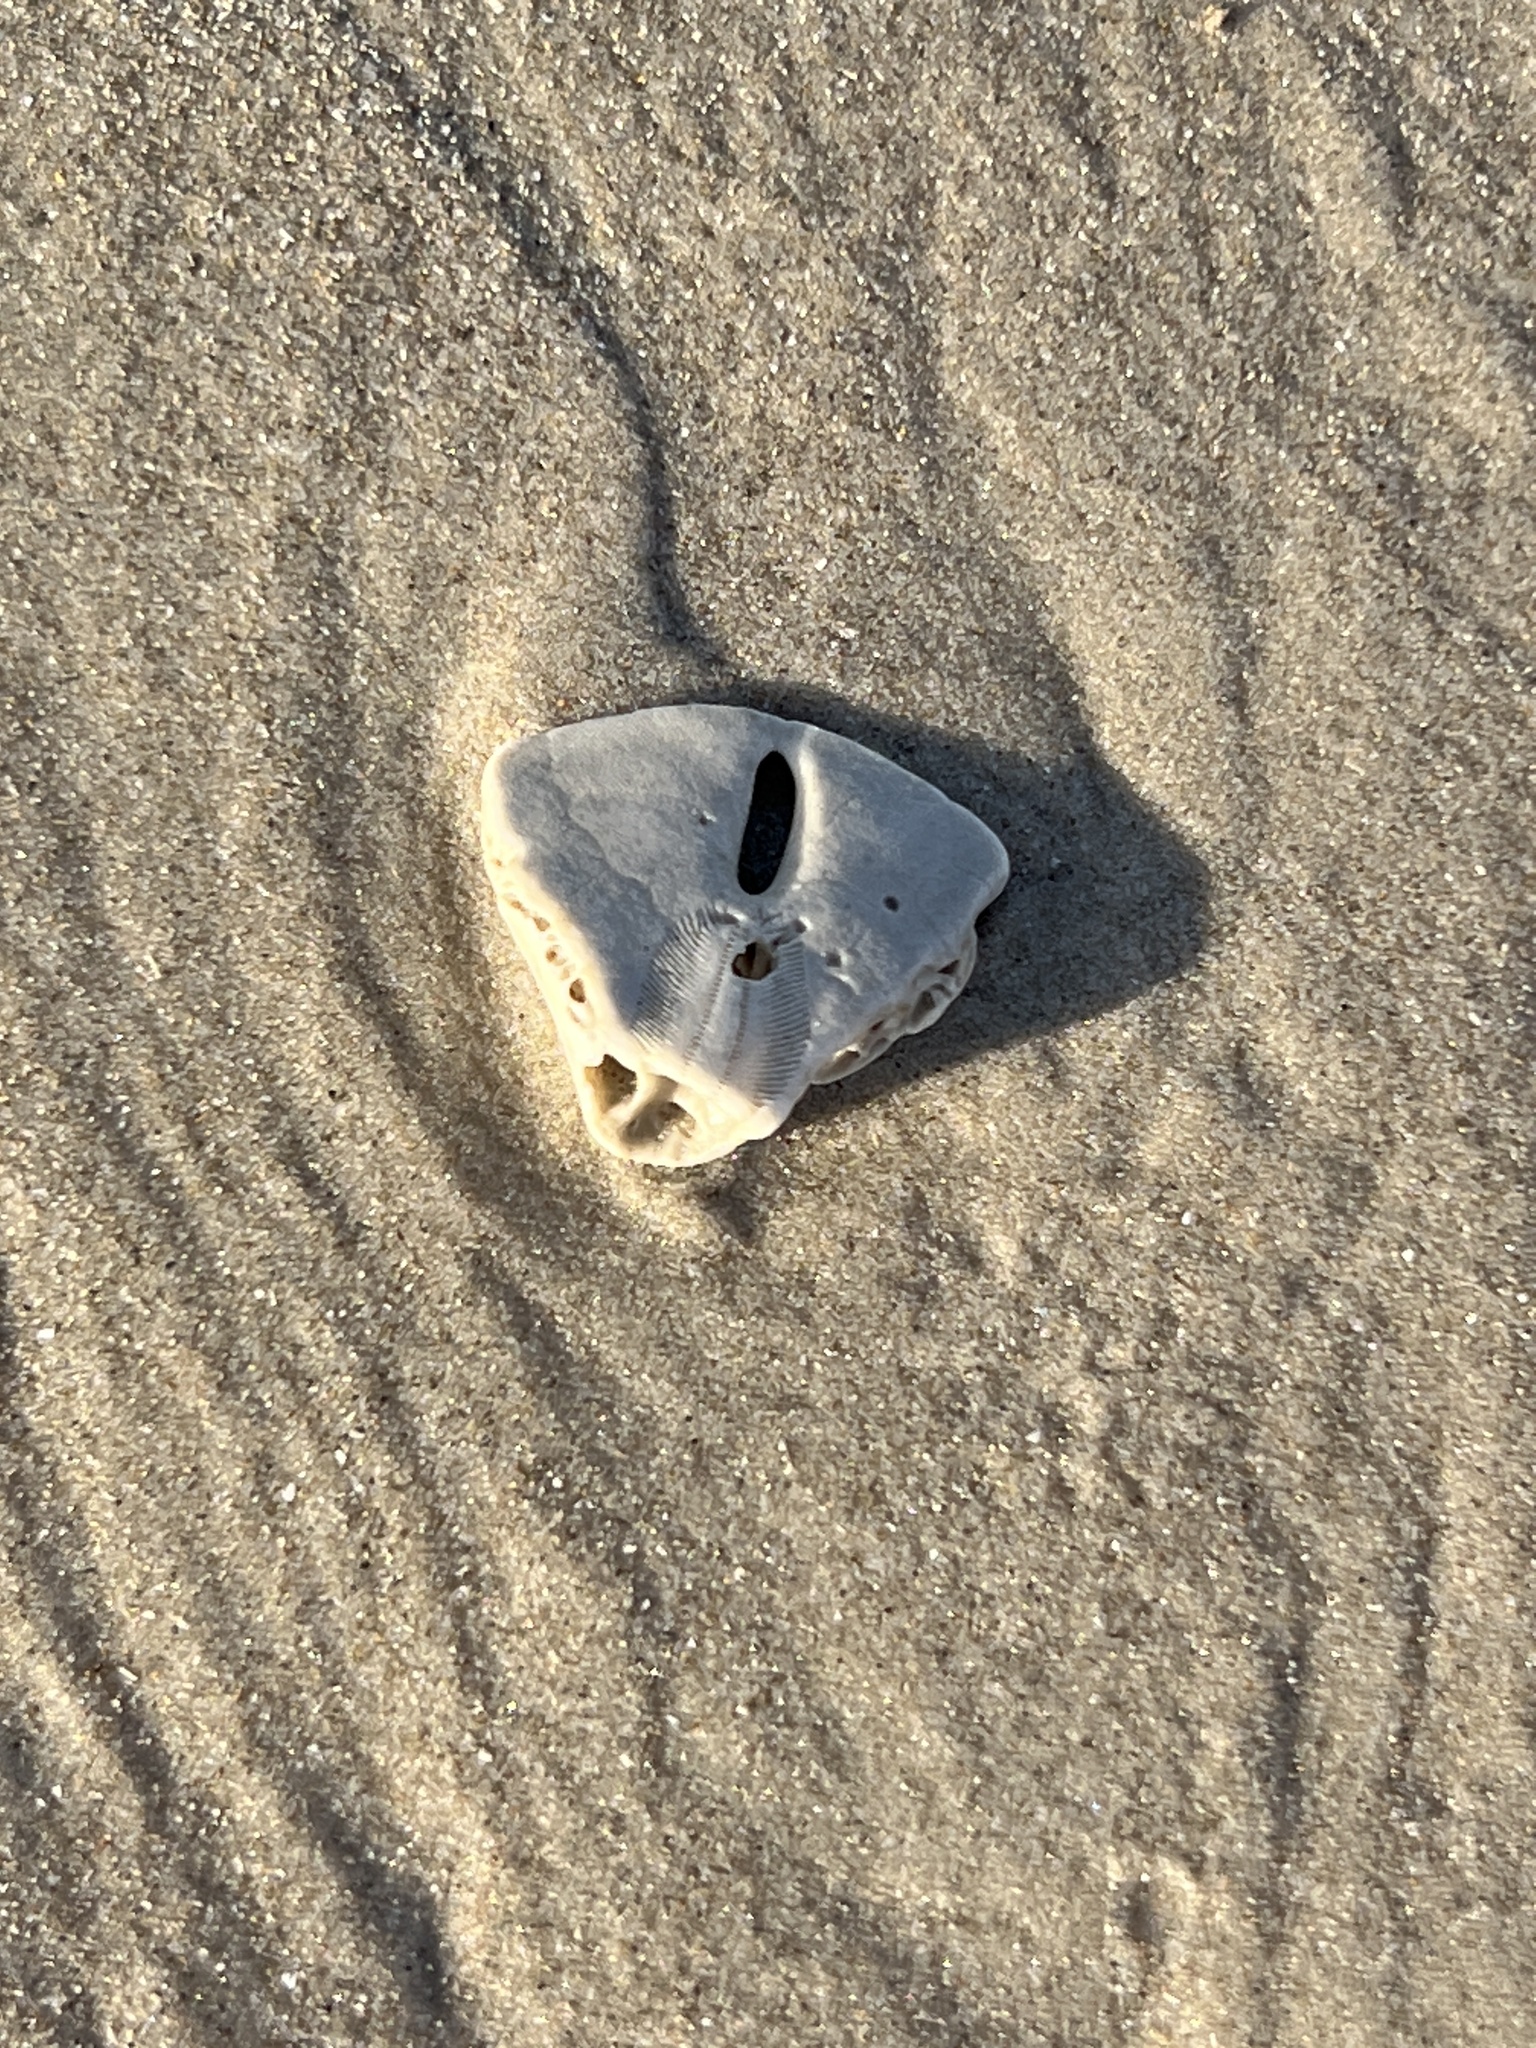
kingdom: Animalia
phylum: Echinodermata
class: Echinoidea
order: Echinolampadacea
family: Mellitidae
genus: Mellita
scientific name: Mellita quinquiesperforata
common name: Sand dollar
